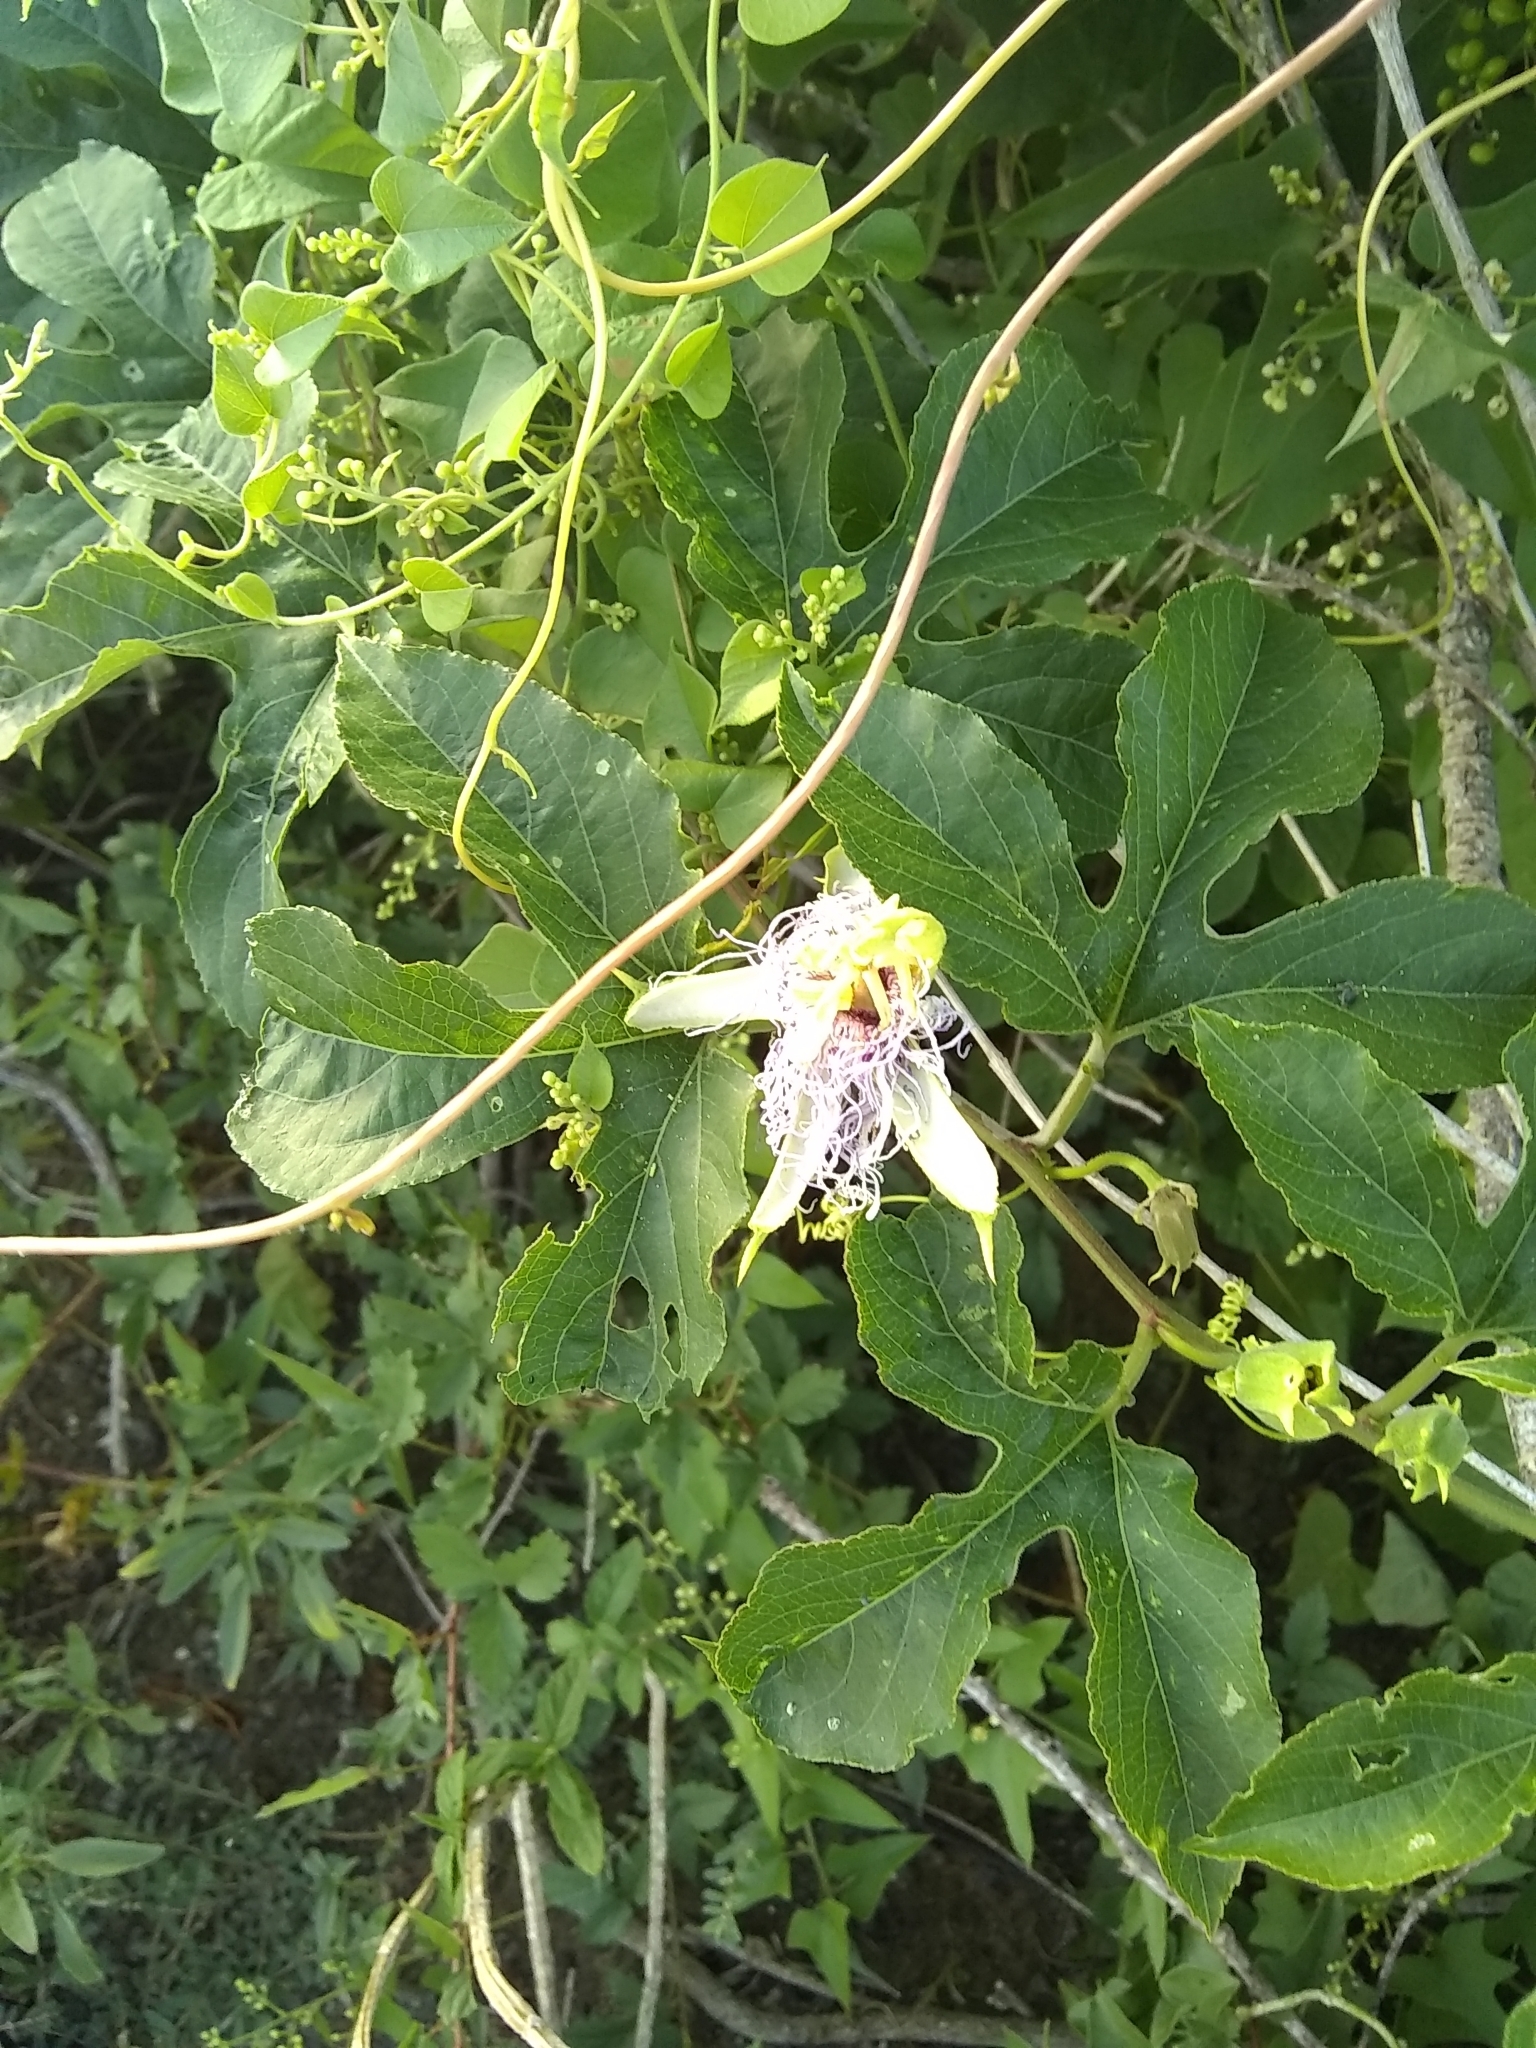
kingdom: Plantae
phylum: Tracheophyta
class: Magnoliopsida
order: Malpighiales
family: Passifloraceae
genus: Passiflora
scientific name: Passiflora incarnata
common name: Apricot-vine
